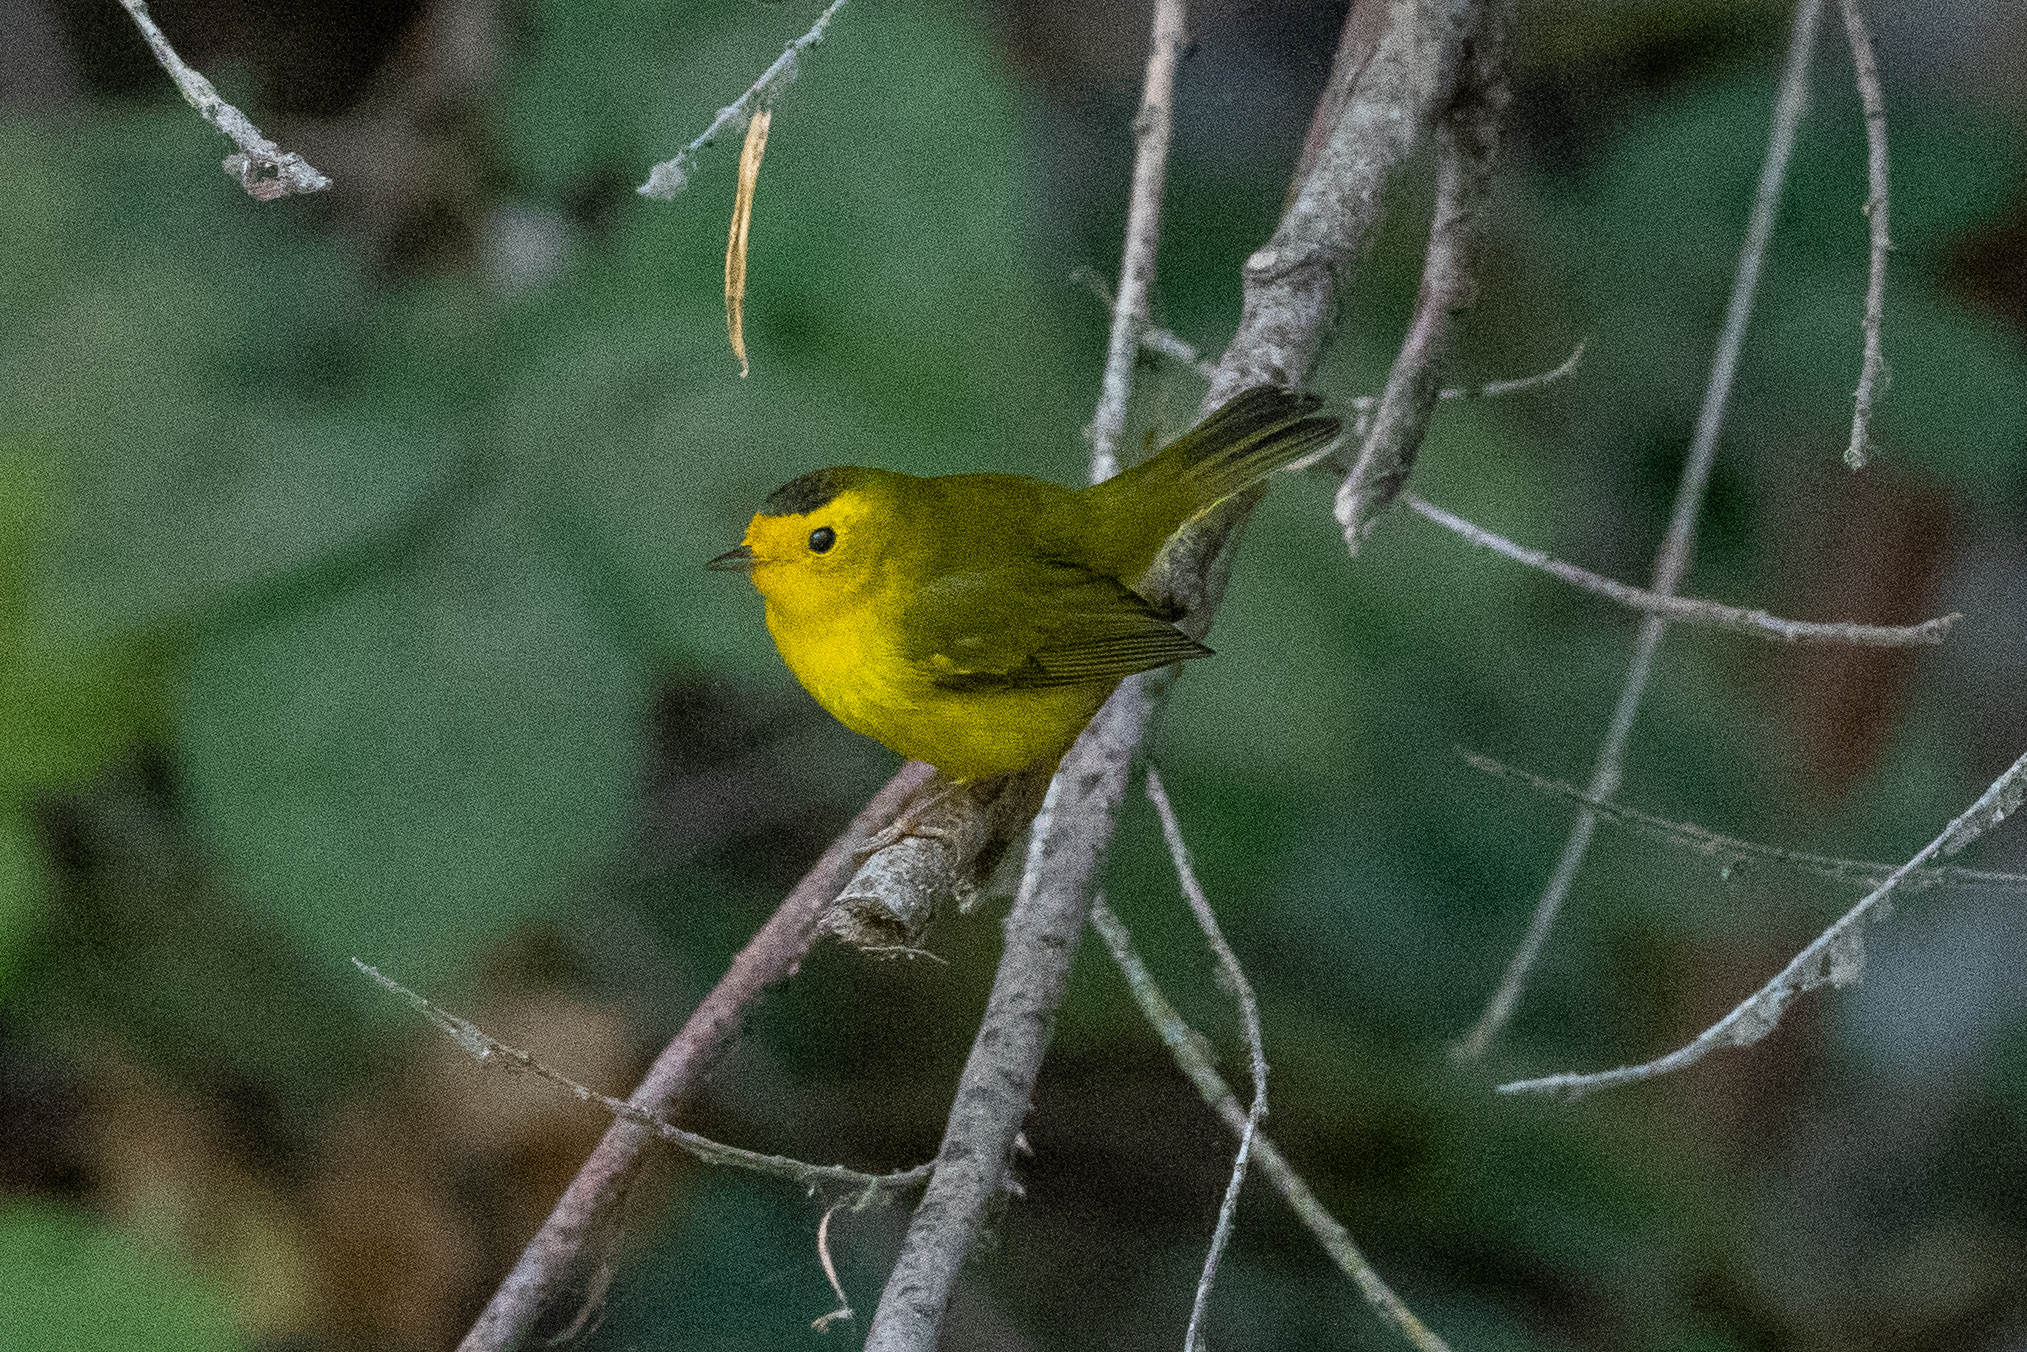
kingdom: Animalia
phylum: Chordata
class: Aves
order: Passeriformes
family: Parulidae
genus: Cardellina
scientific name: Cardellina pusilla
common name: Wilson's warbler
